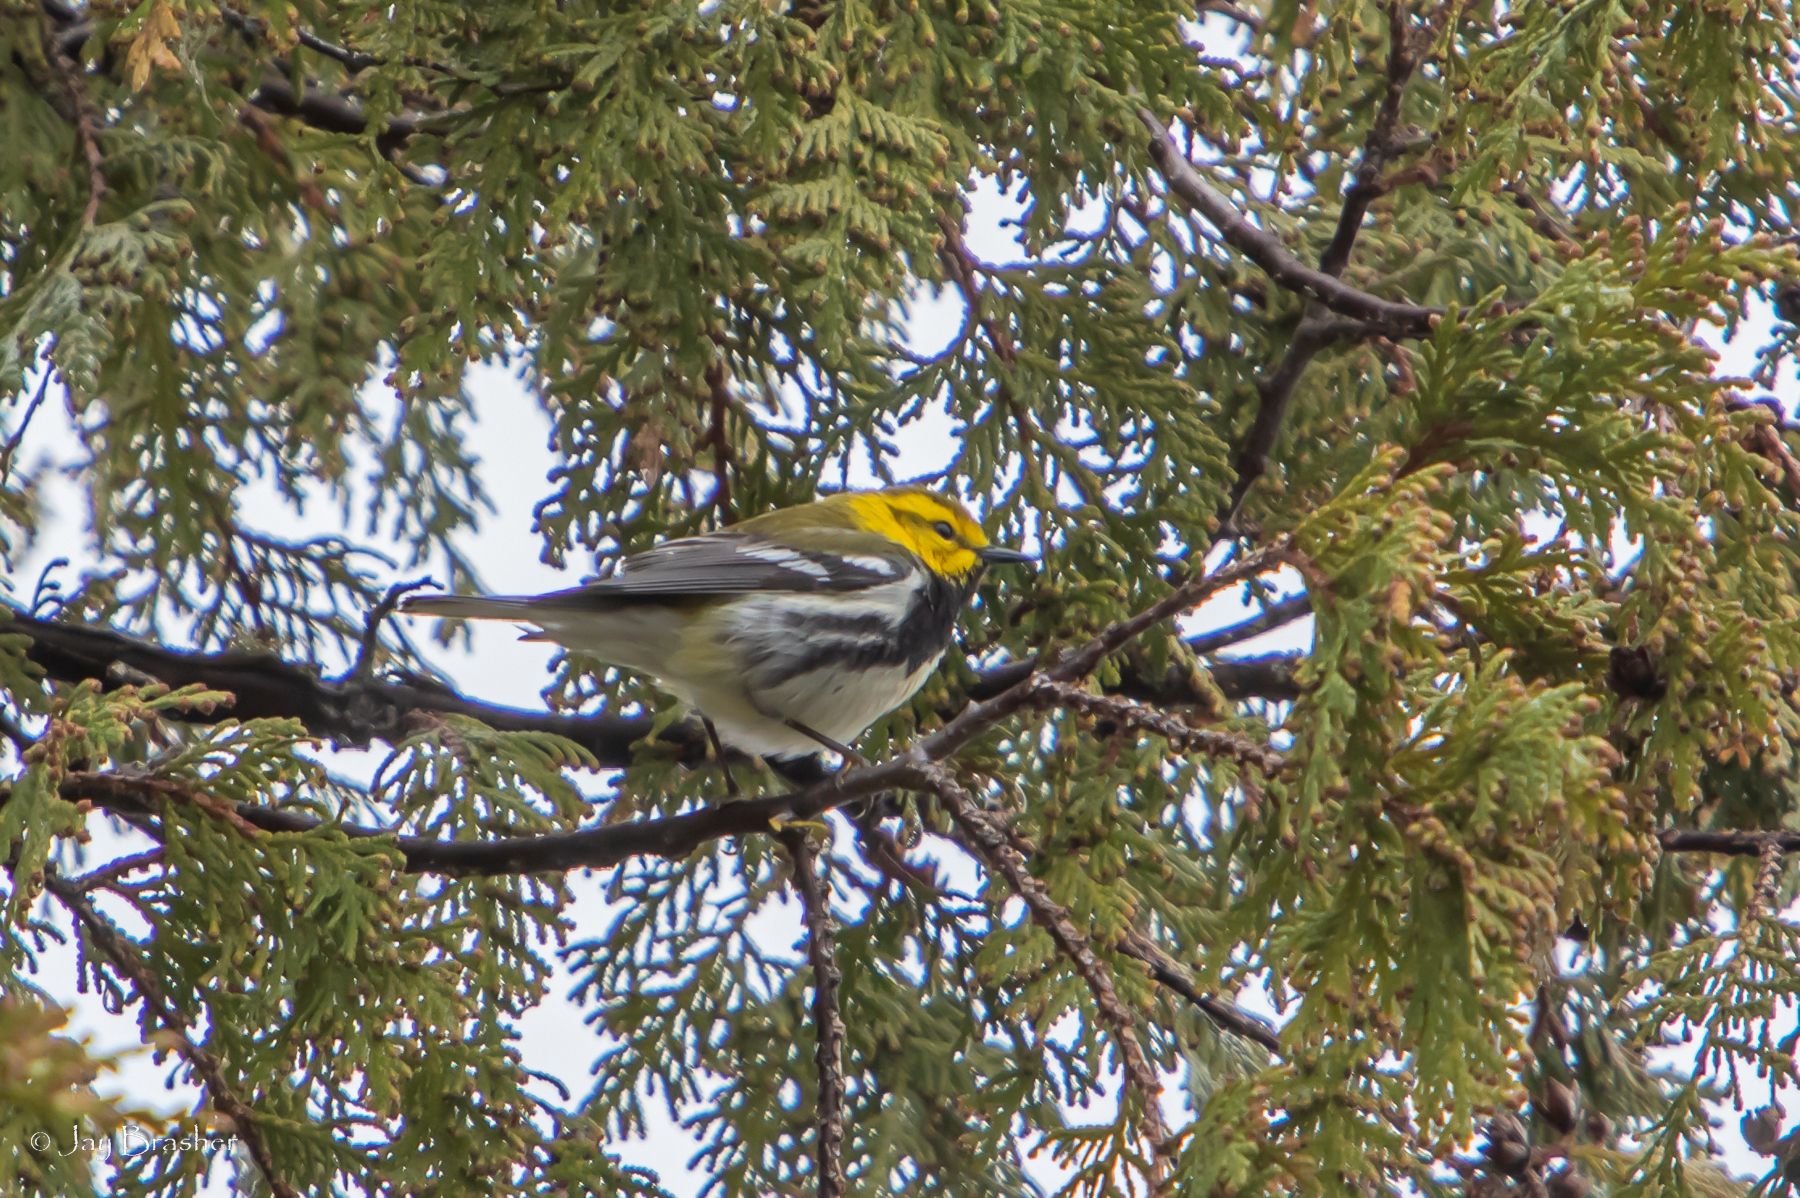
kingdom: Animalia
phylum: Chordata
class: Aves
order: Passeriformes
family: Parulidae
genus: Setophaga
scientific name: Setophaga virens
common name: Black-throated green warbler
